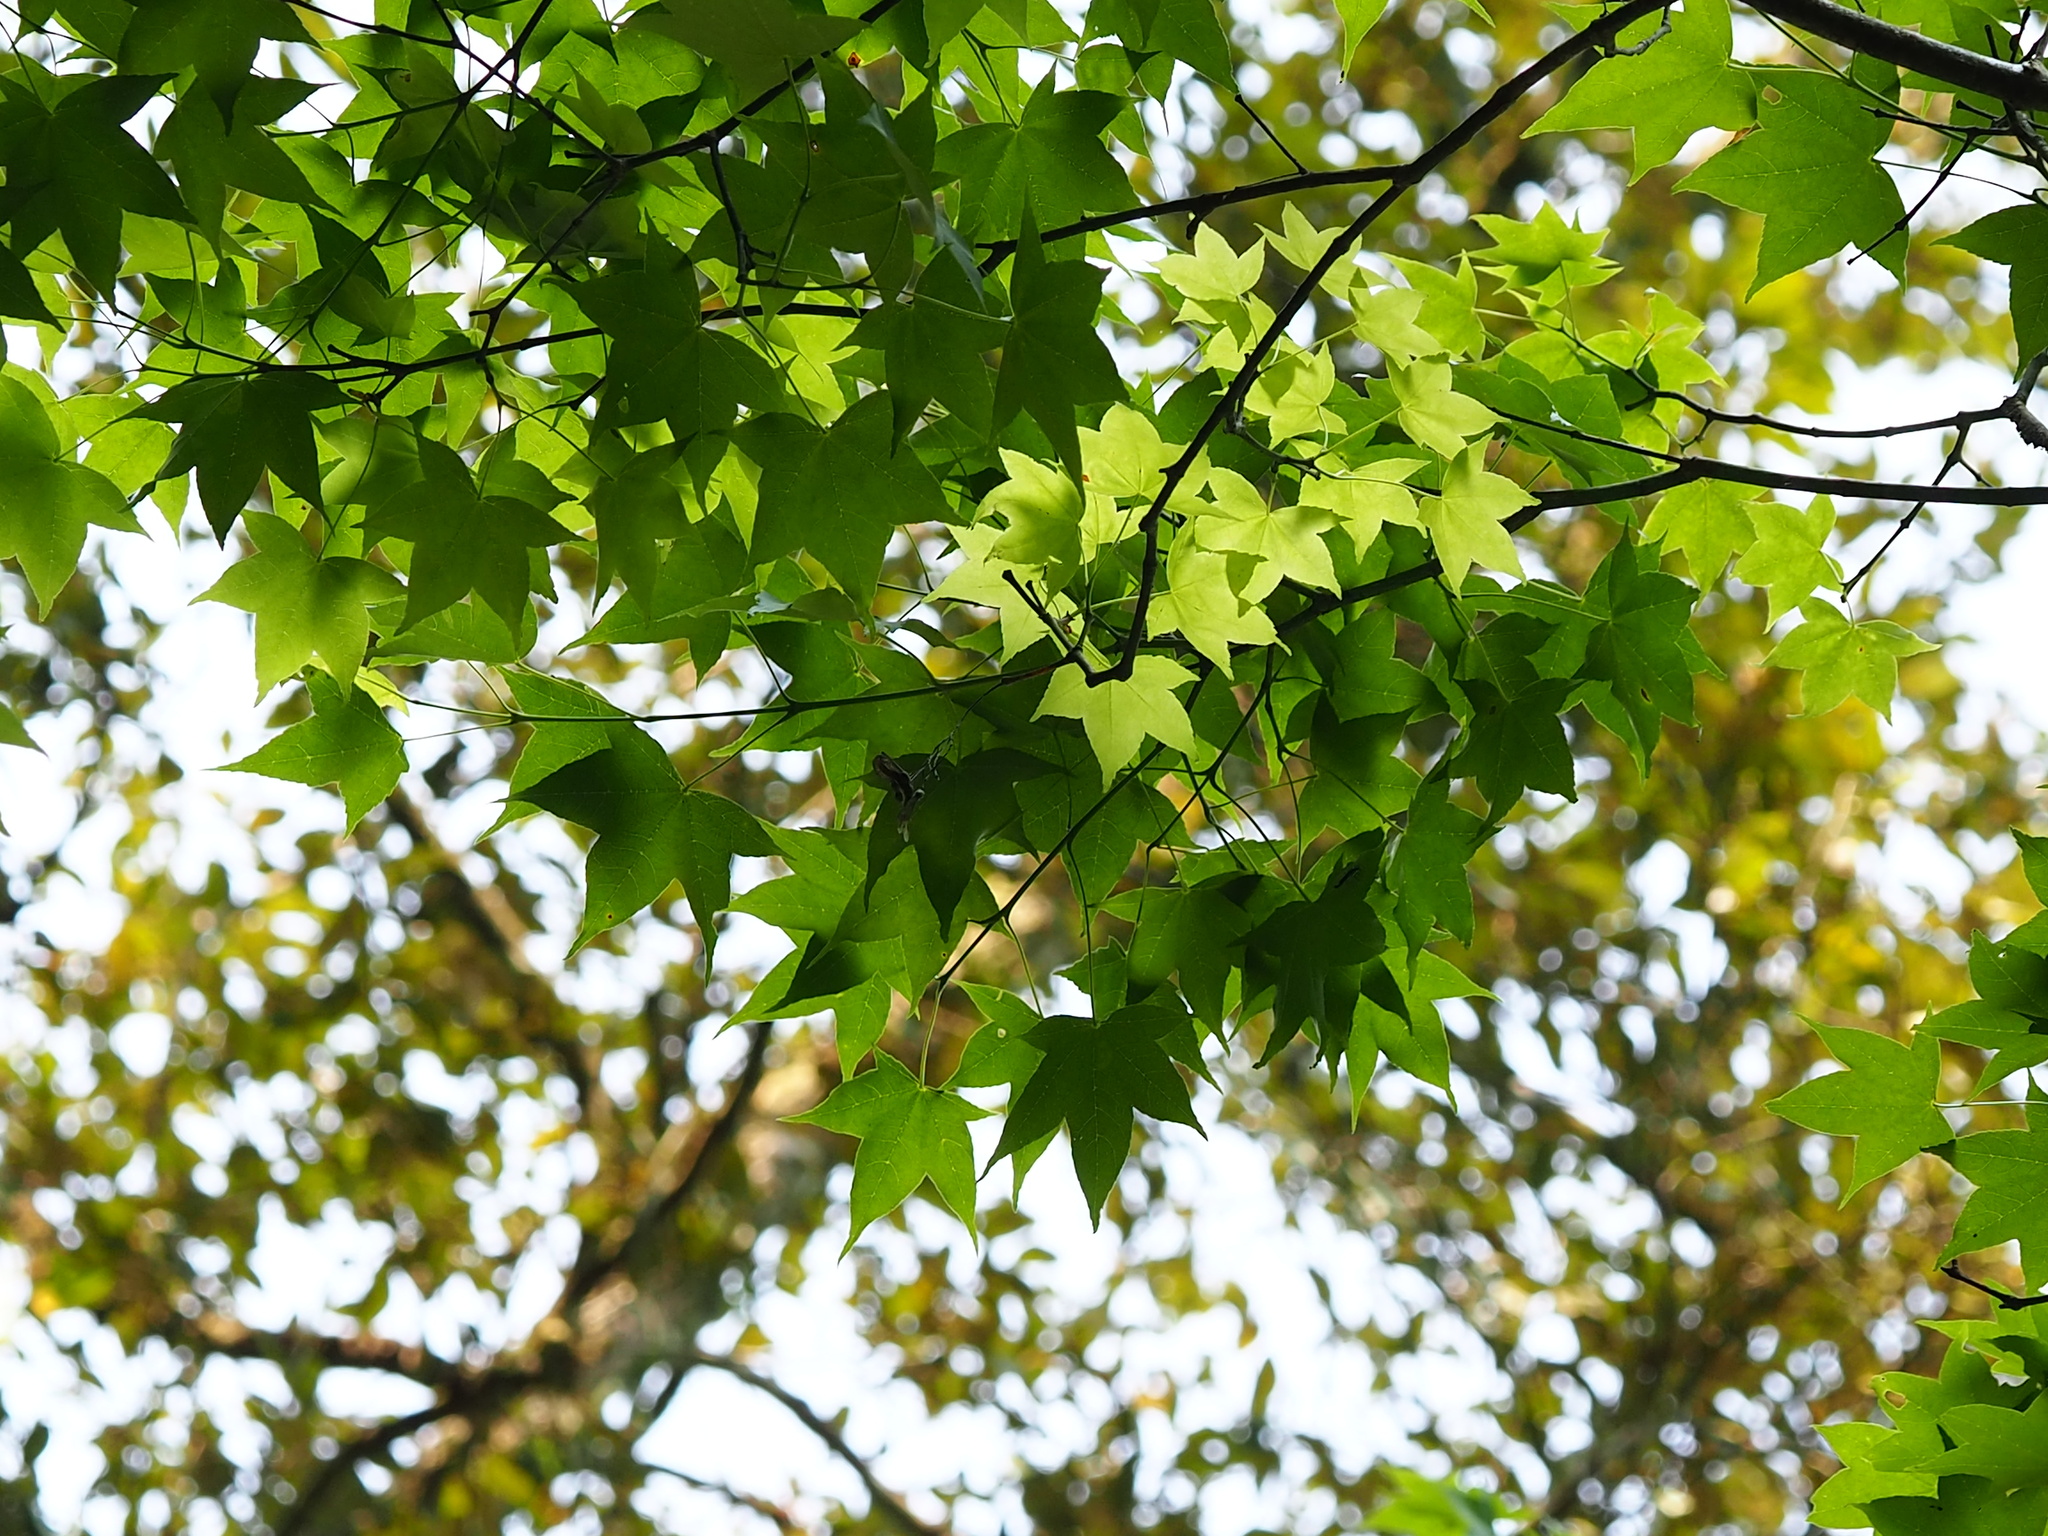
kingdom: Plantae
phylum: Tracheophyta
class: Magnoliopsida
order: Sapindales
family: Sapindaceae
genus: Acer
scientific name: Acer serrulatum
